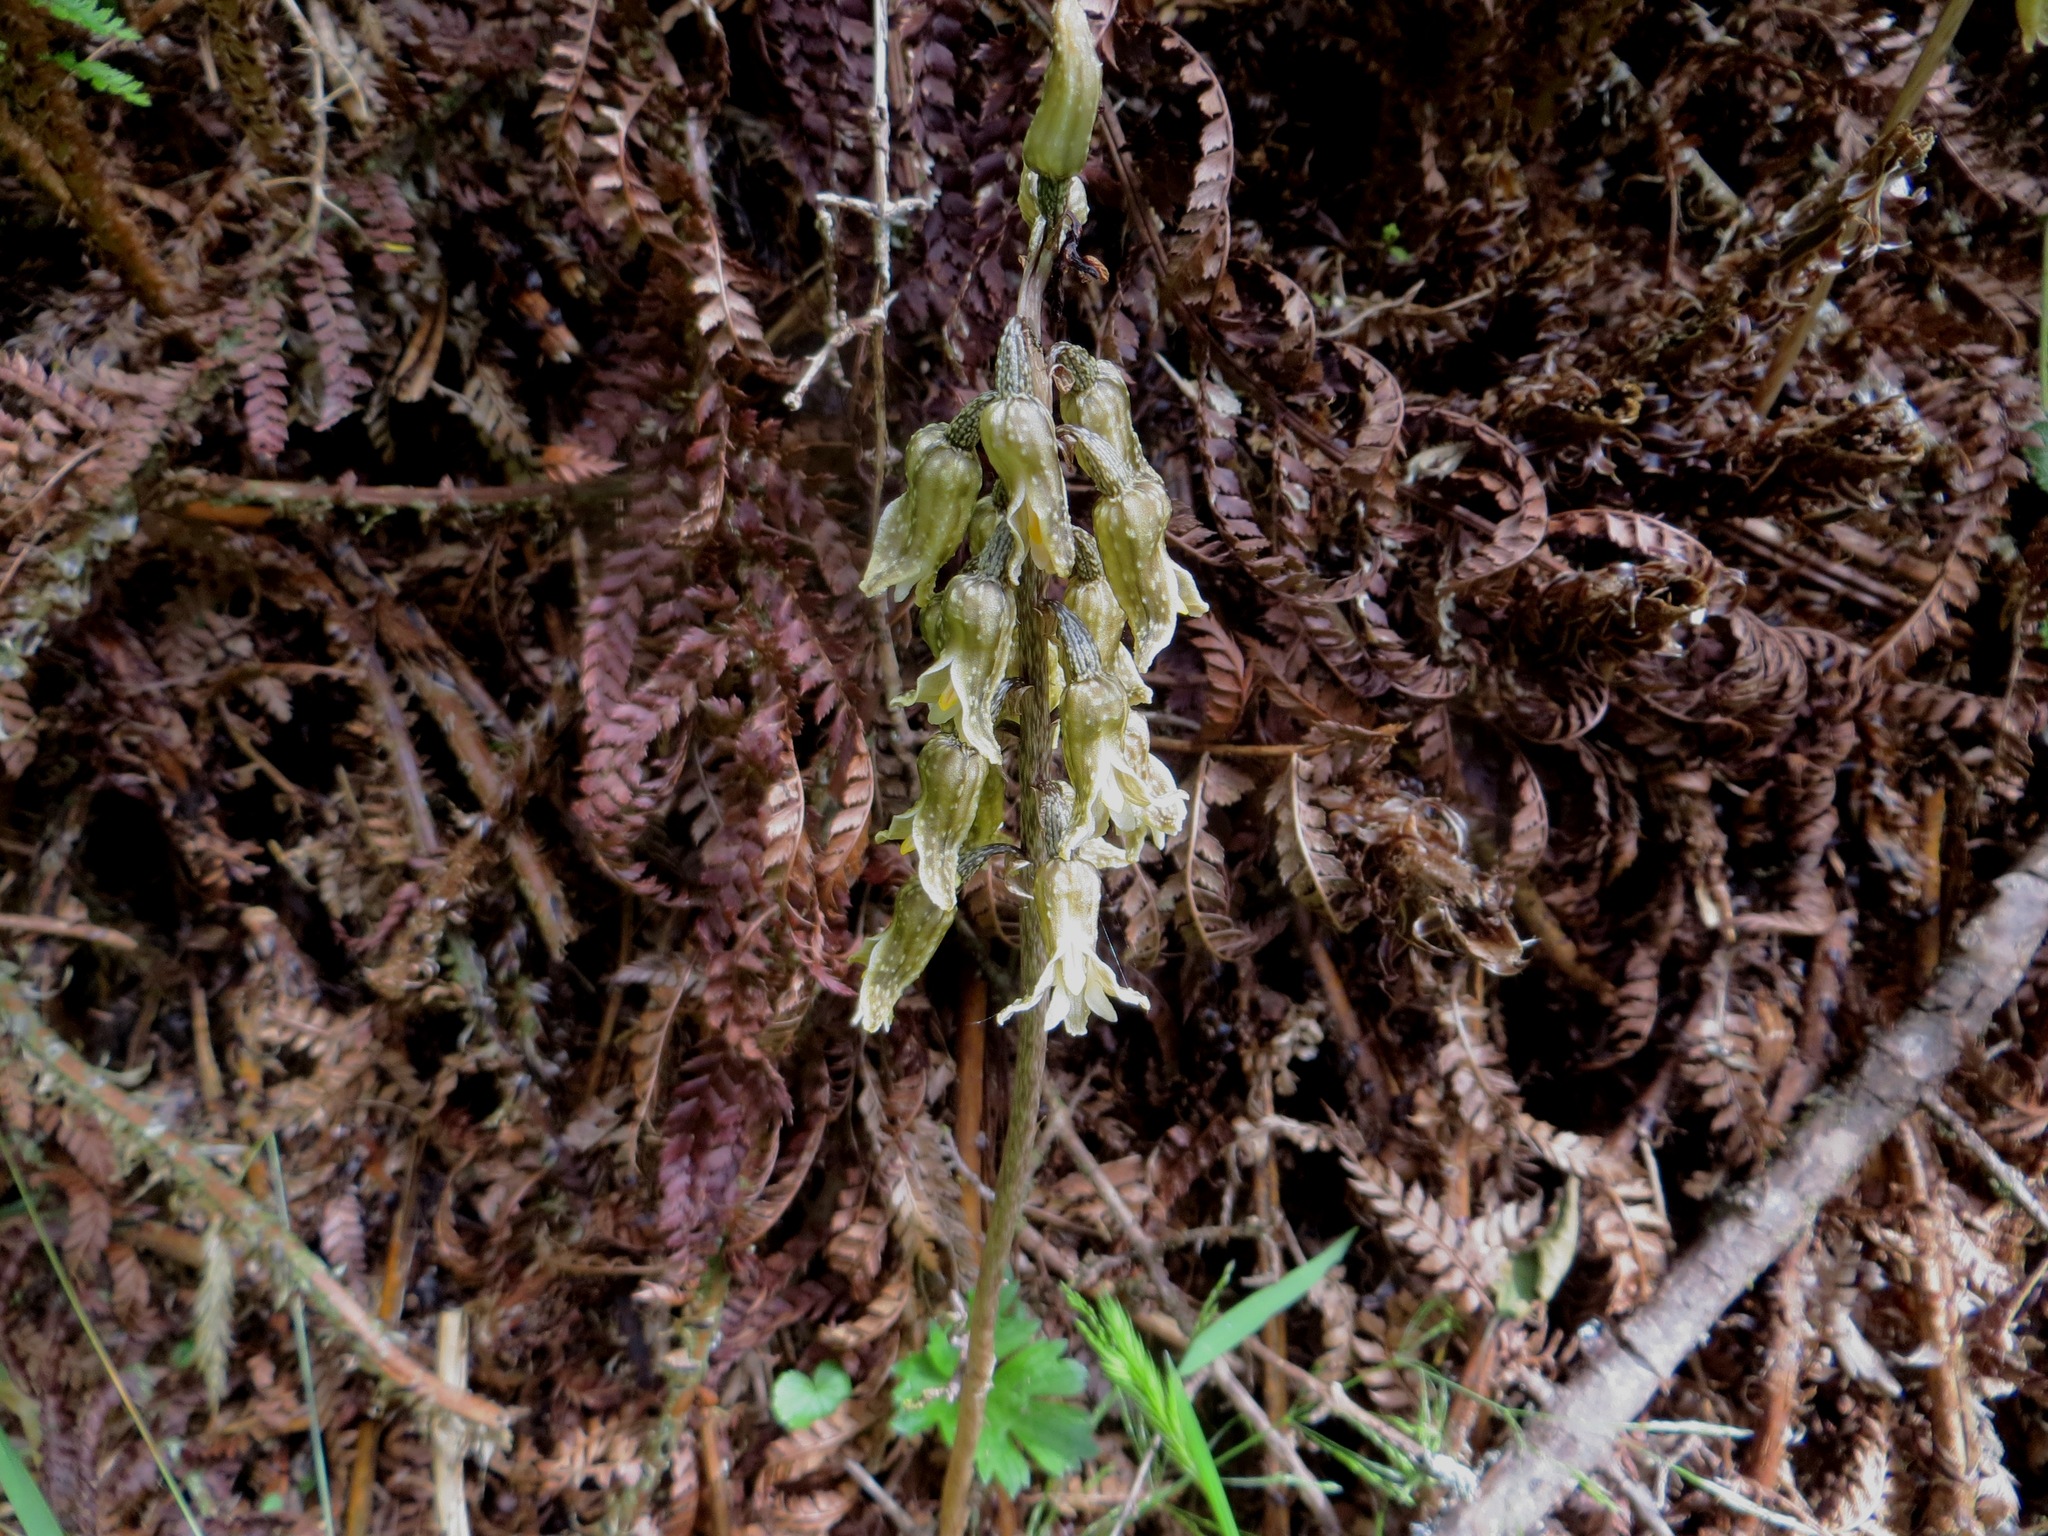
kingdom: Plantae
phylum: Tracheophyta
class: Liliopsida
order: Asparagales
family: Orchidaceae
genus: Gastrodia
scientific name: Gastrodia molloyi
